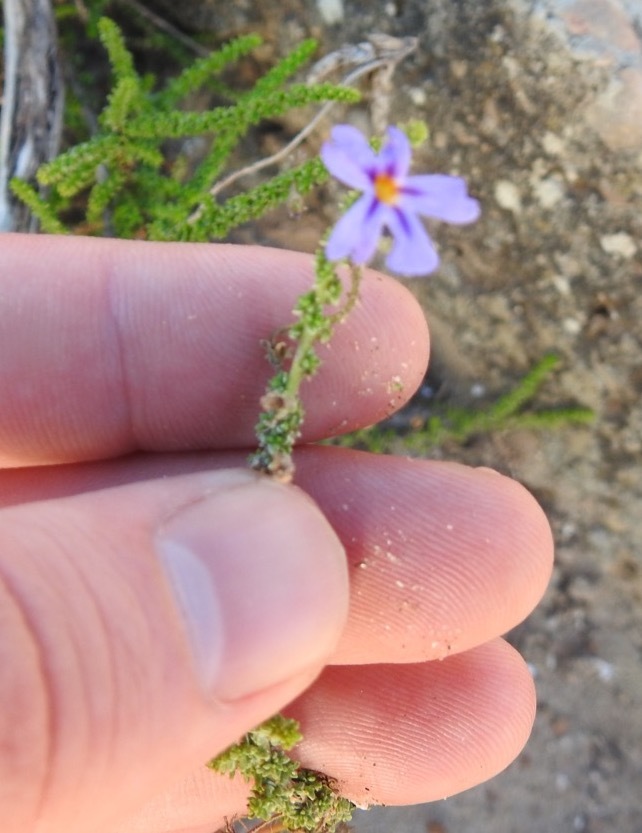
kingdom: Plantae
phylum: Tracheophyta
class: Magnoliopsida
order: Lamiales
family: Scrophulariaceae
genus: Jamesbrittenia
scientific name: Jamesbrittenia microphylla
